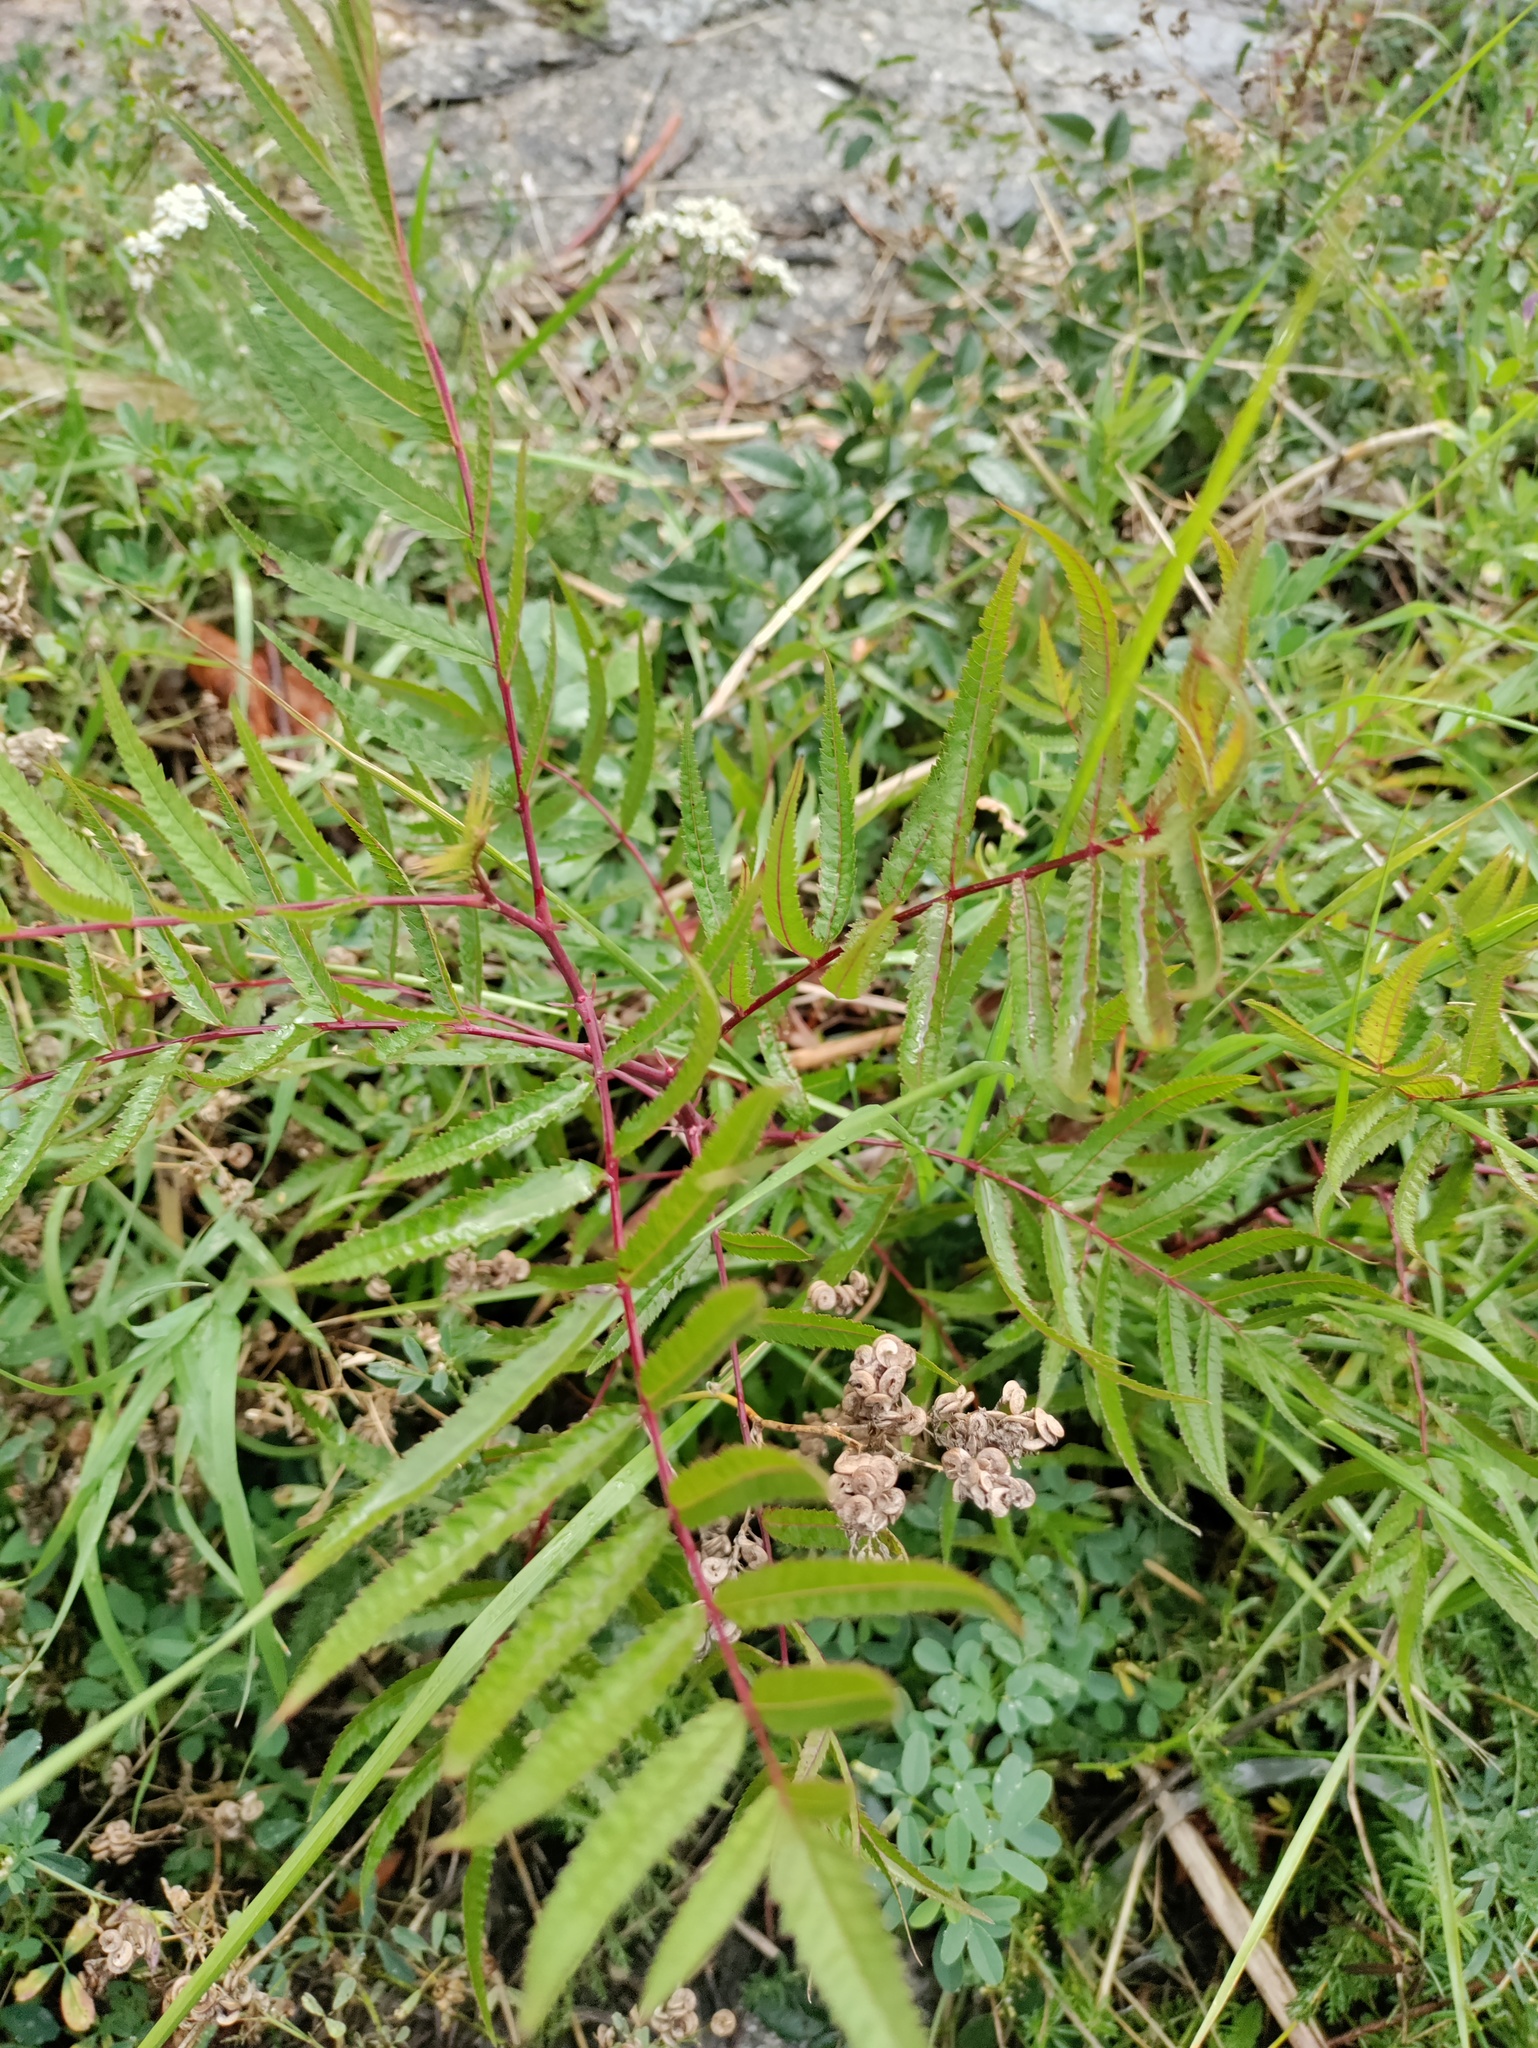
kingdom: Plantae
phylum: Tracheophyta
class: Magnoliopsida
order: Rosales
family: Rosaceae
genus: Sorbaria
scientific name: Sorbaria sorbifolia
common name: False spiraea
